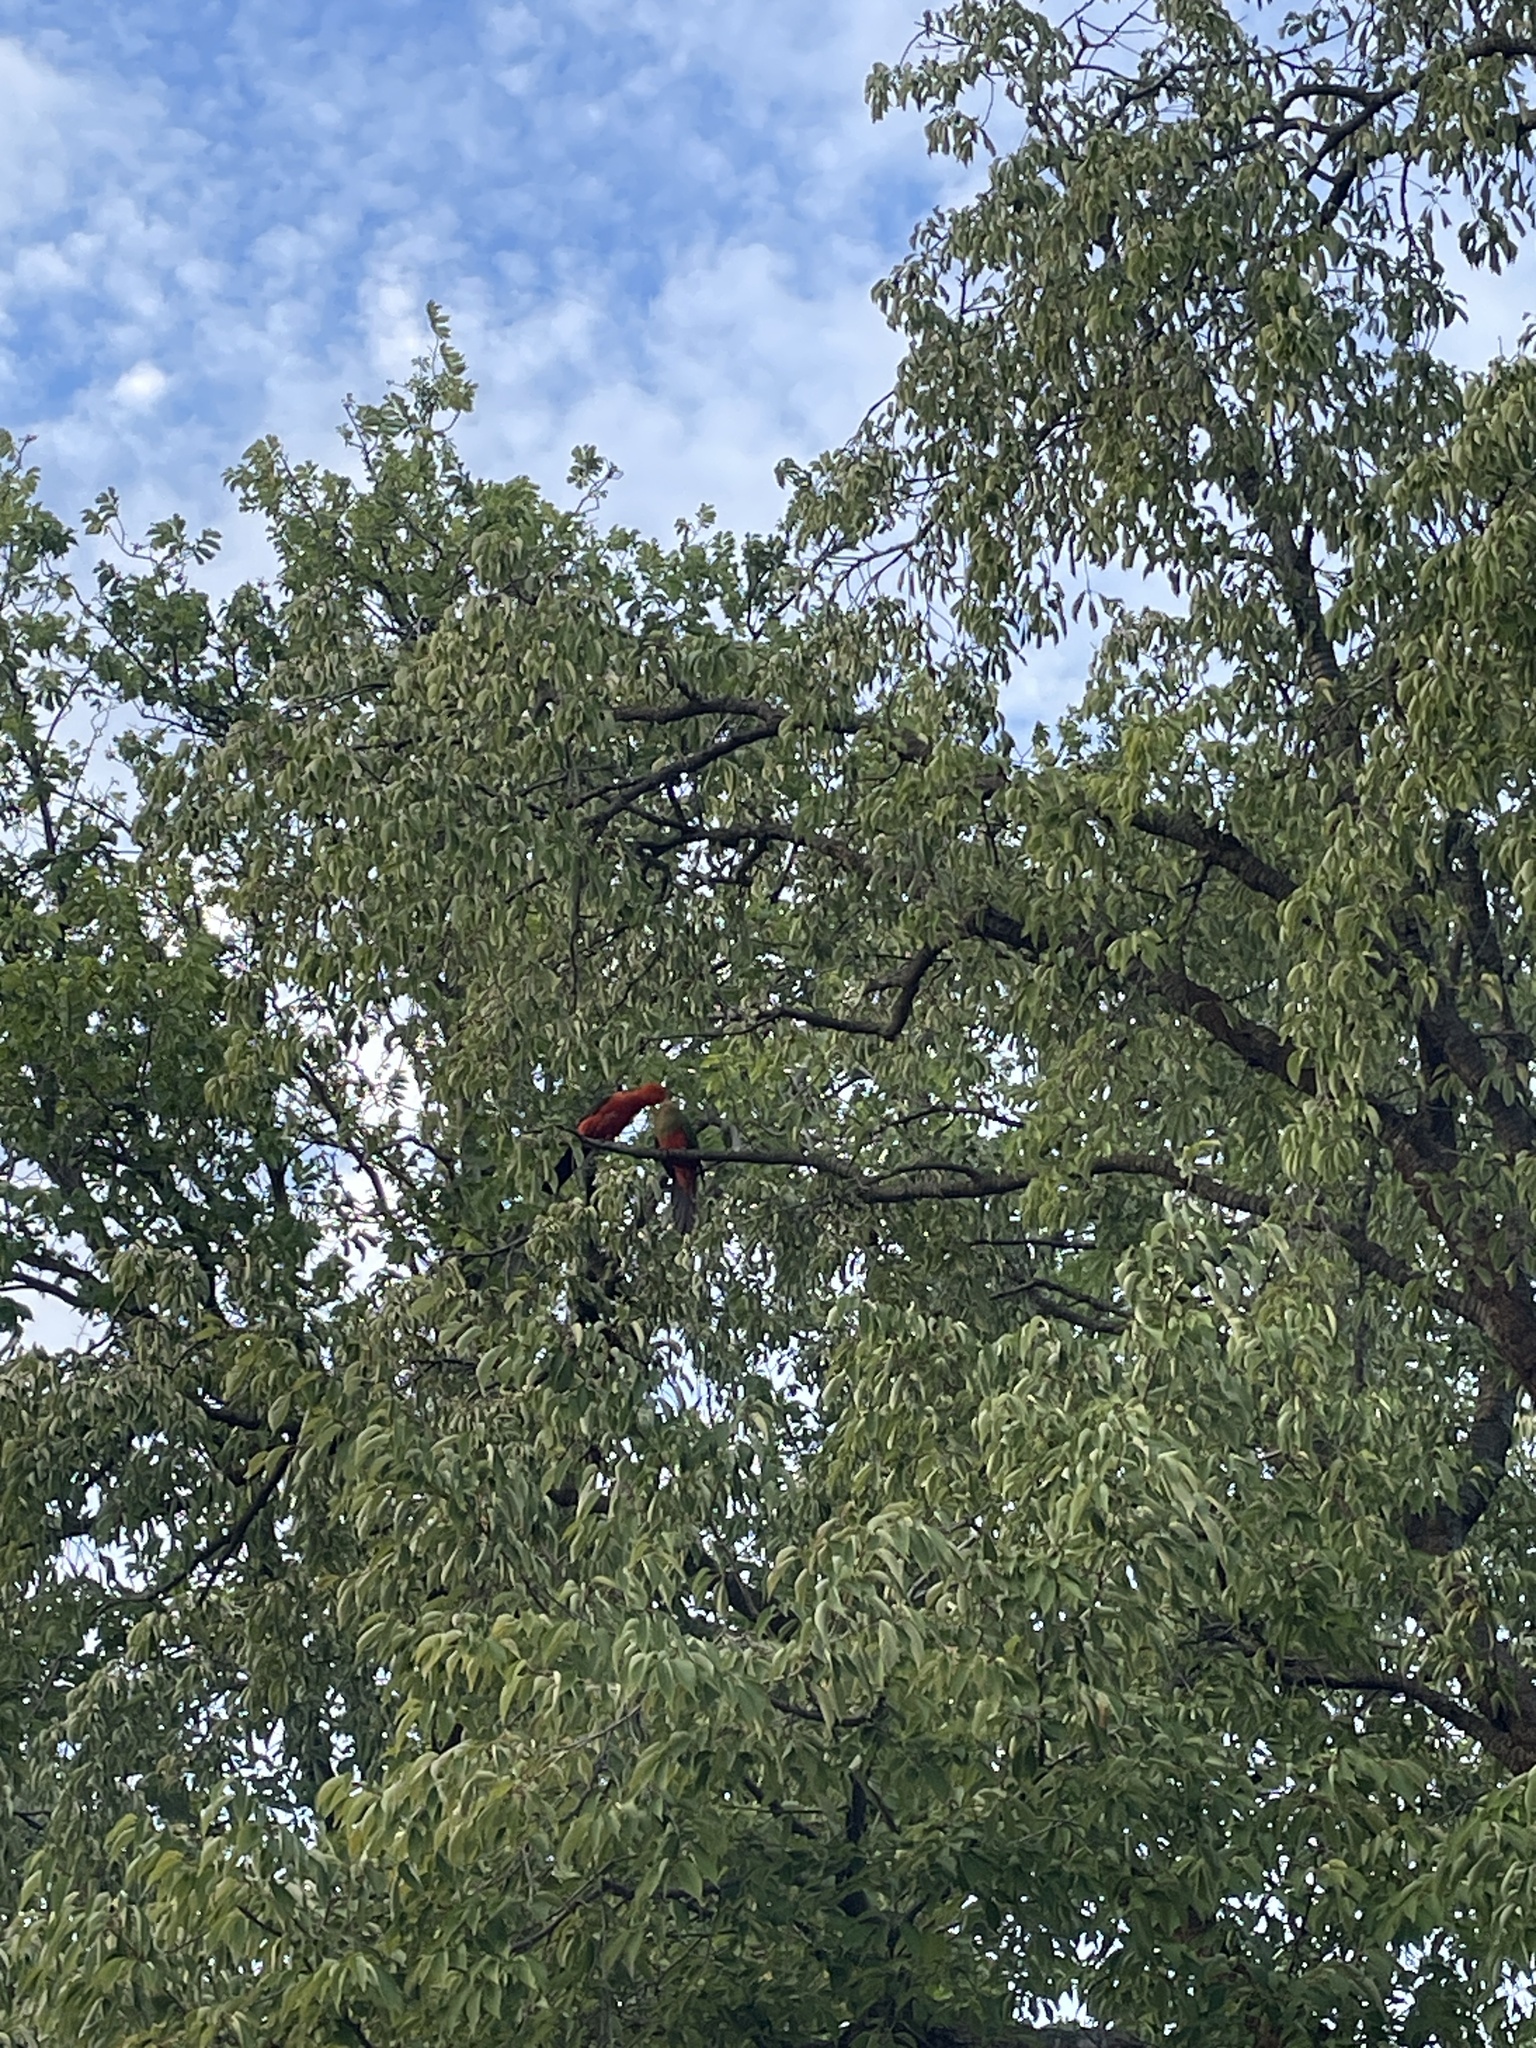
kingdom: Animalia
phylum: Chordata
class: Aves
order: Psittaciformes
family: Psittacidae
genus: Alisterus
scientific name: Alisterus scapularis
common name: Australian king parrot
